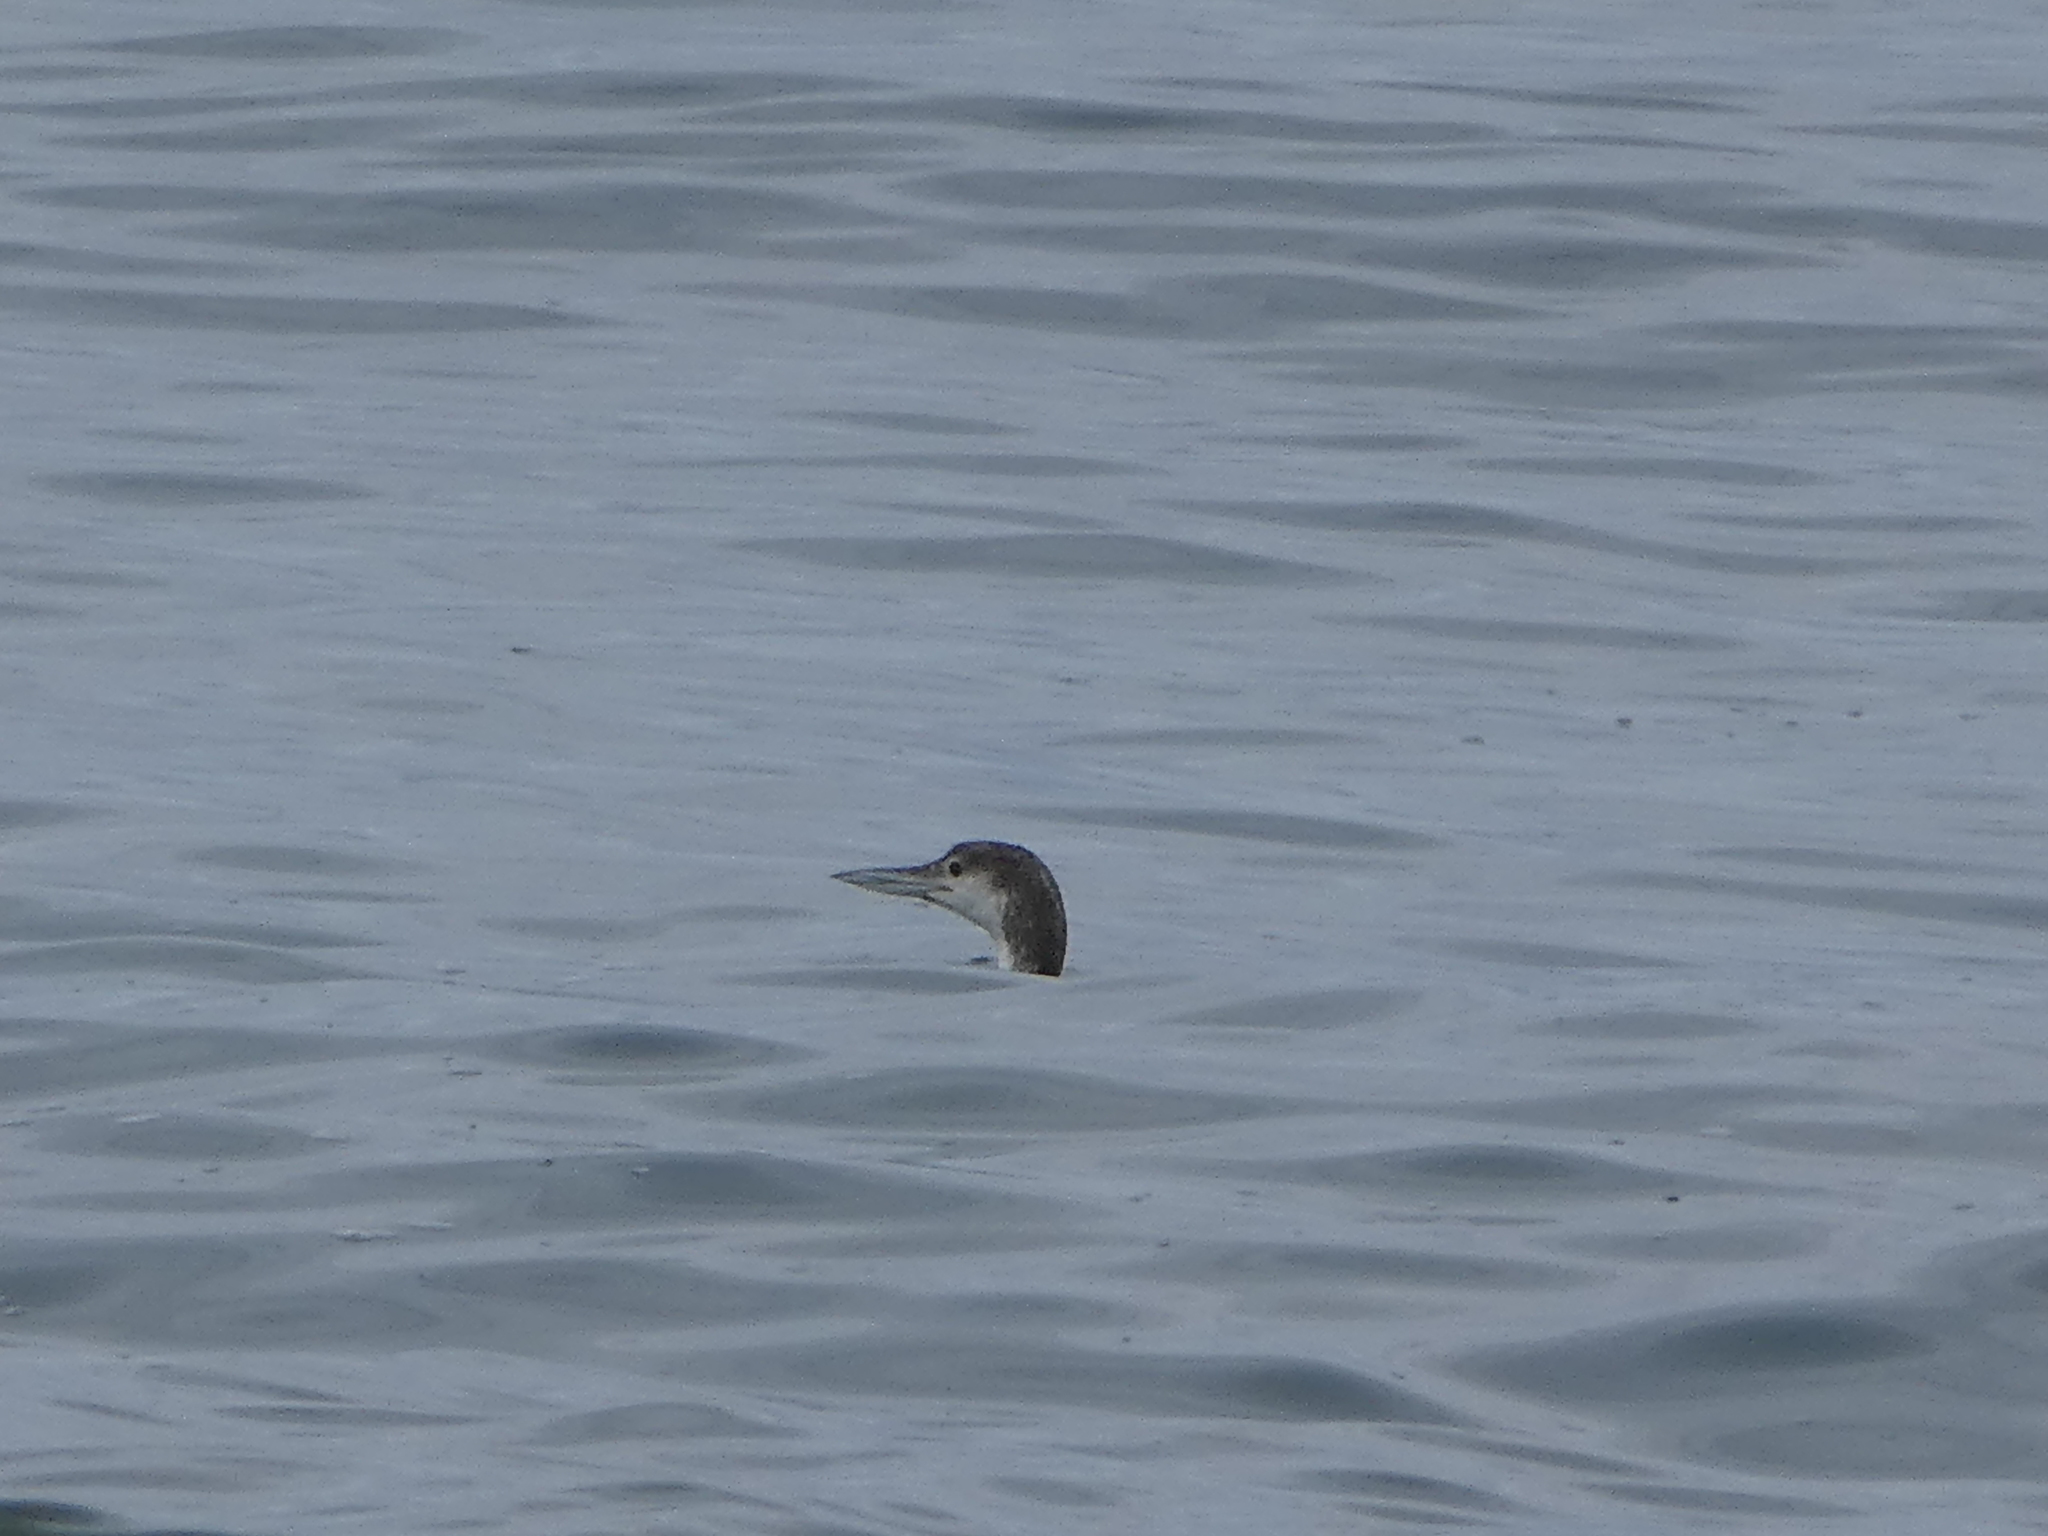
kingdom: Animalia
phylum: Chordata
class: Aves
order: Gaviiformes
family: Gaviidae
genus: Gavia
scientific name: Gavia immer
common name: Common loon
